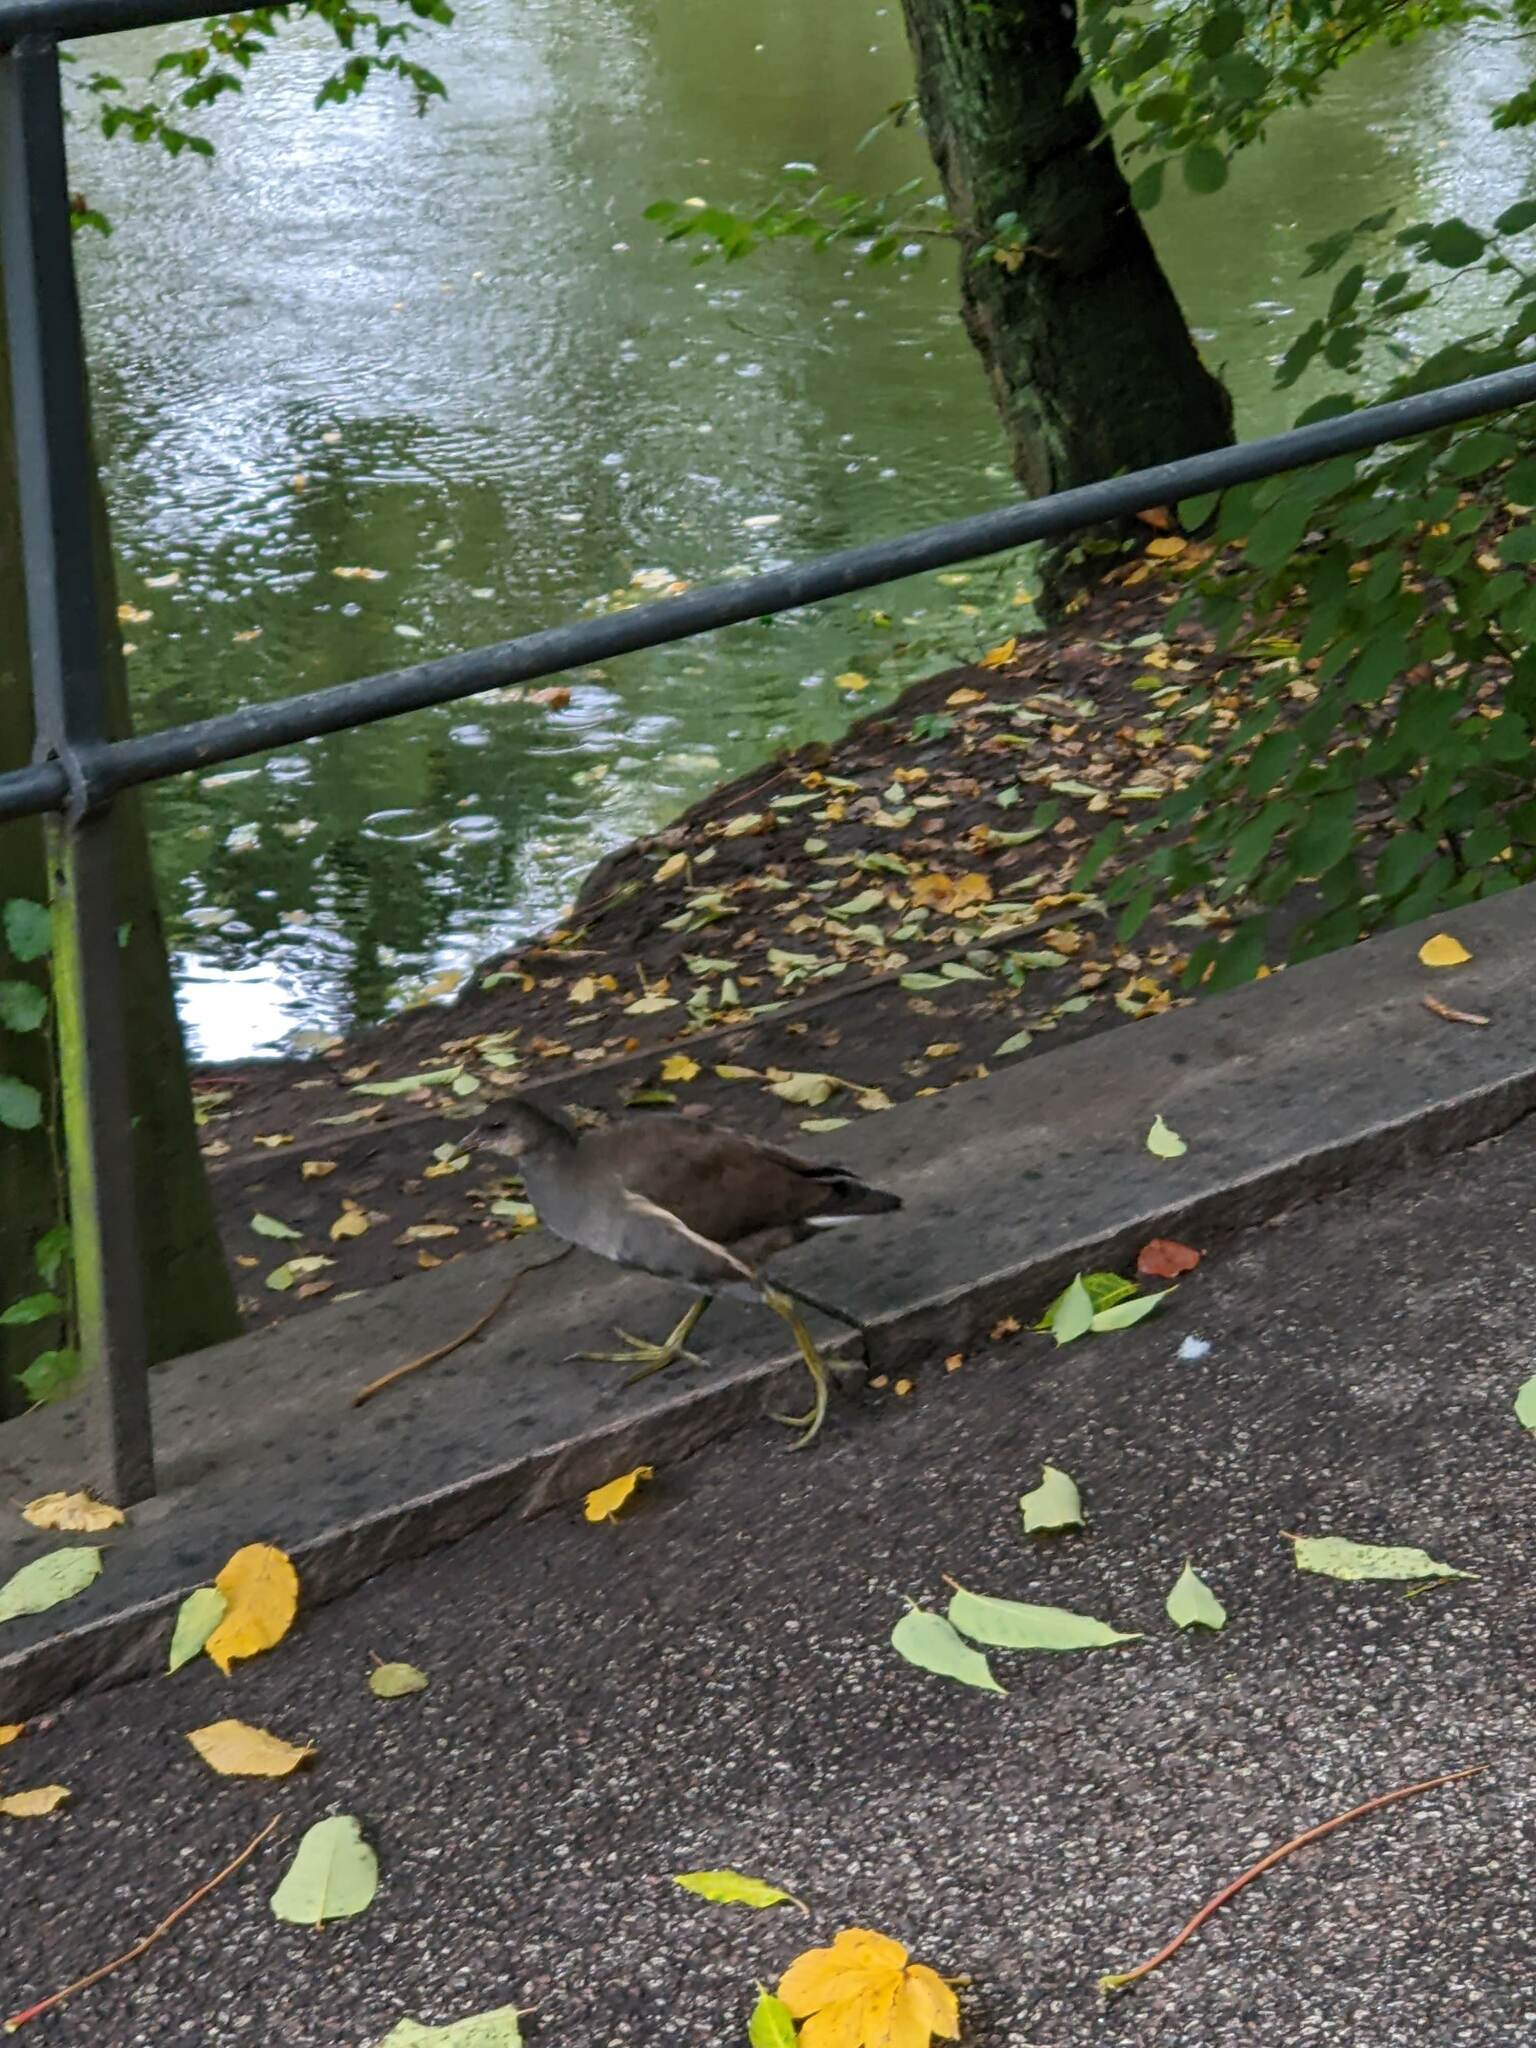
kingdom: Animalia
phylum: Chordata
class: Aves
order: Gruiformes
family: Rallidae
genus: Gallinula
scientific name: Gallinula chloropus
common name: Common moorhen
